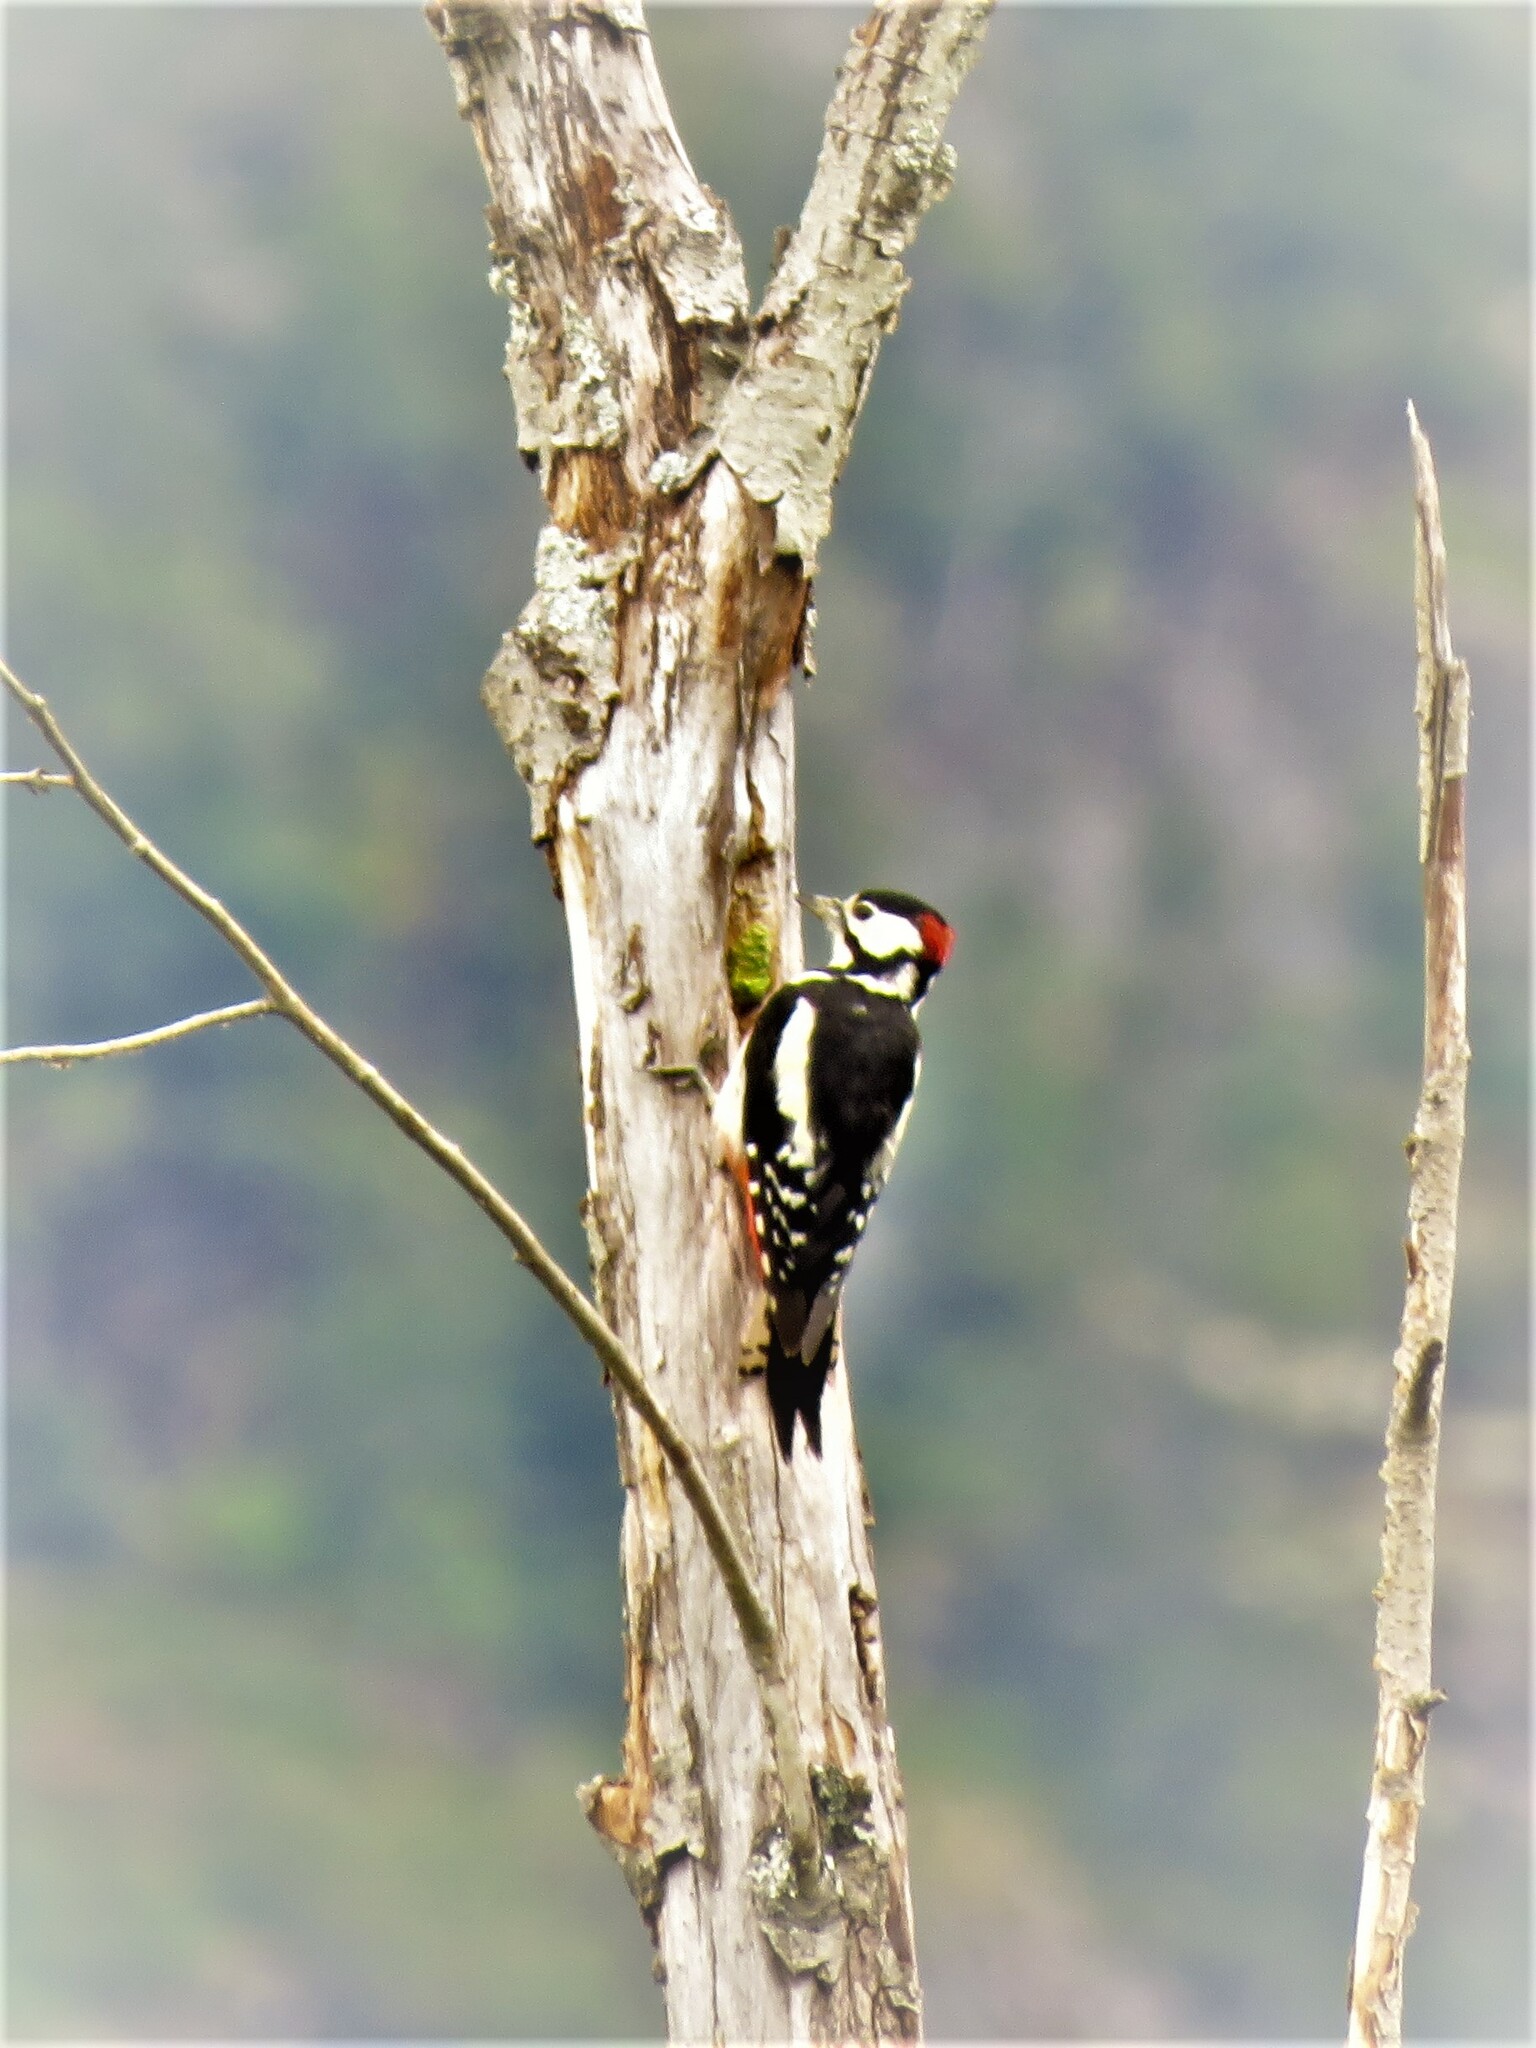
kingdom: Animalia
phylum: Chordata
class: Aves
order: Piciformes
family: Picidae
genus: Dendrocopos
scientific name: Dendrocopos major
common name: Great spotted woodpecker
